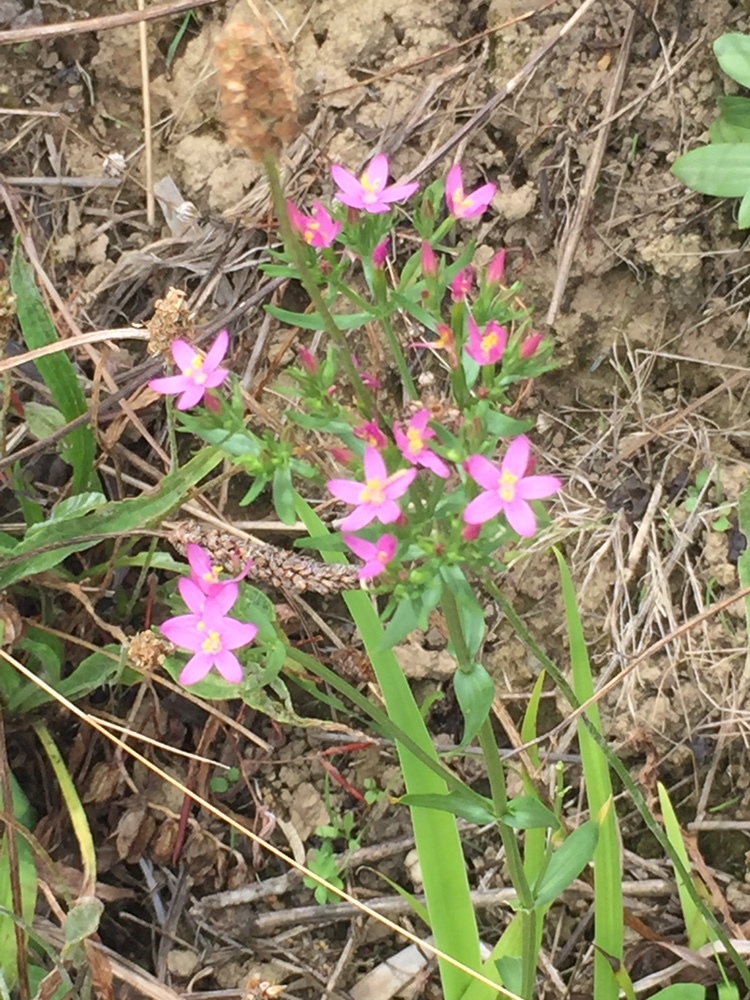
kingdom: Plantae
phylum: Tracheophyta
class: Magnoliopsida
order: Gentianales
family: Gentianaceae
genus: Centaurium
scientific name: Centaurium erythraea
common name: Common centaury
